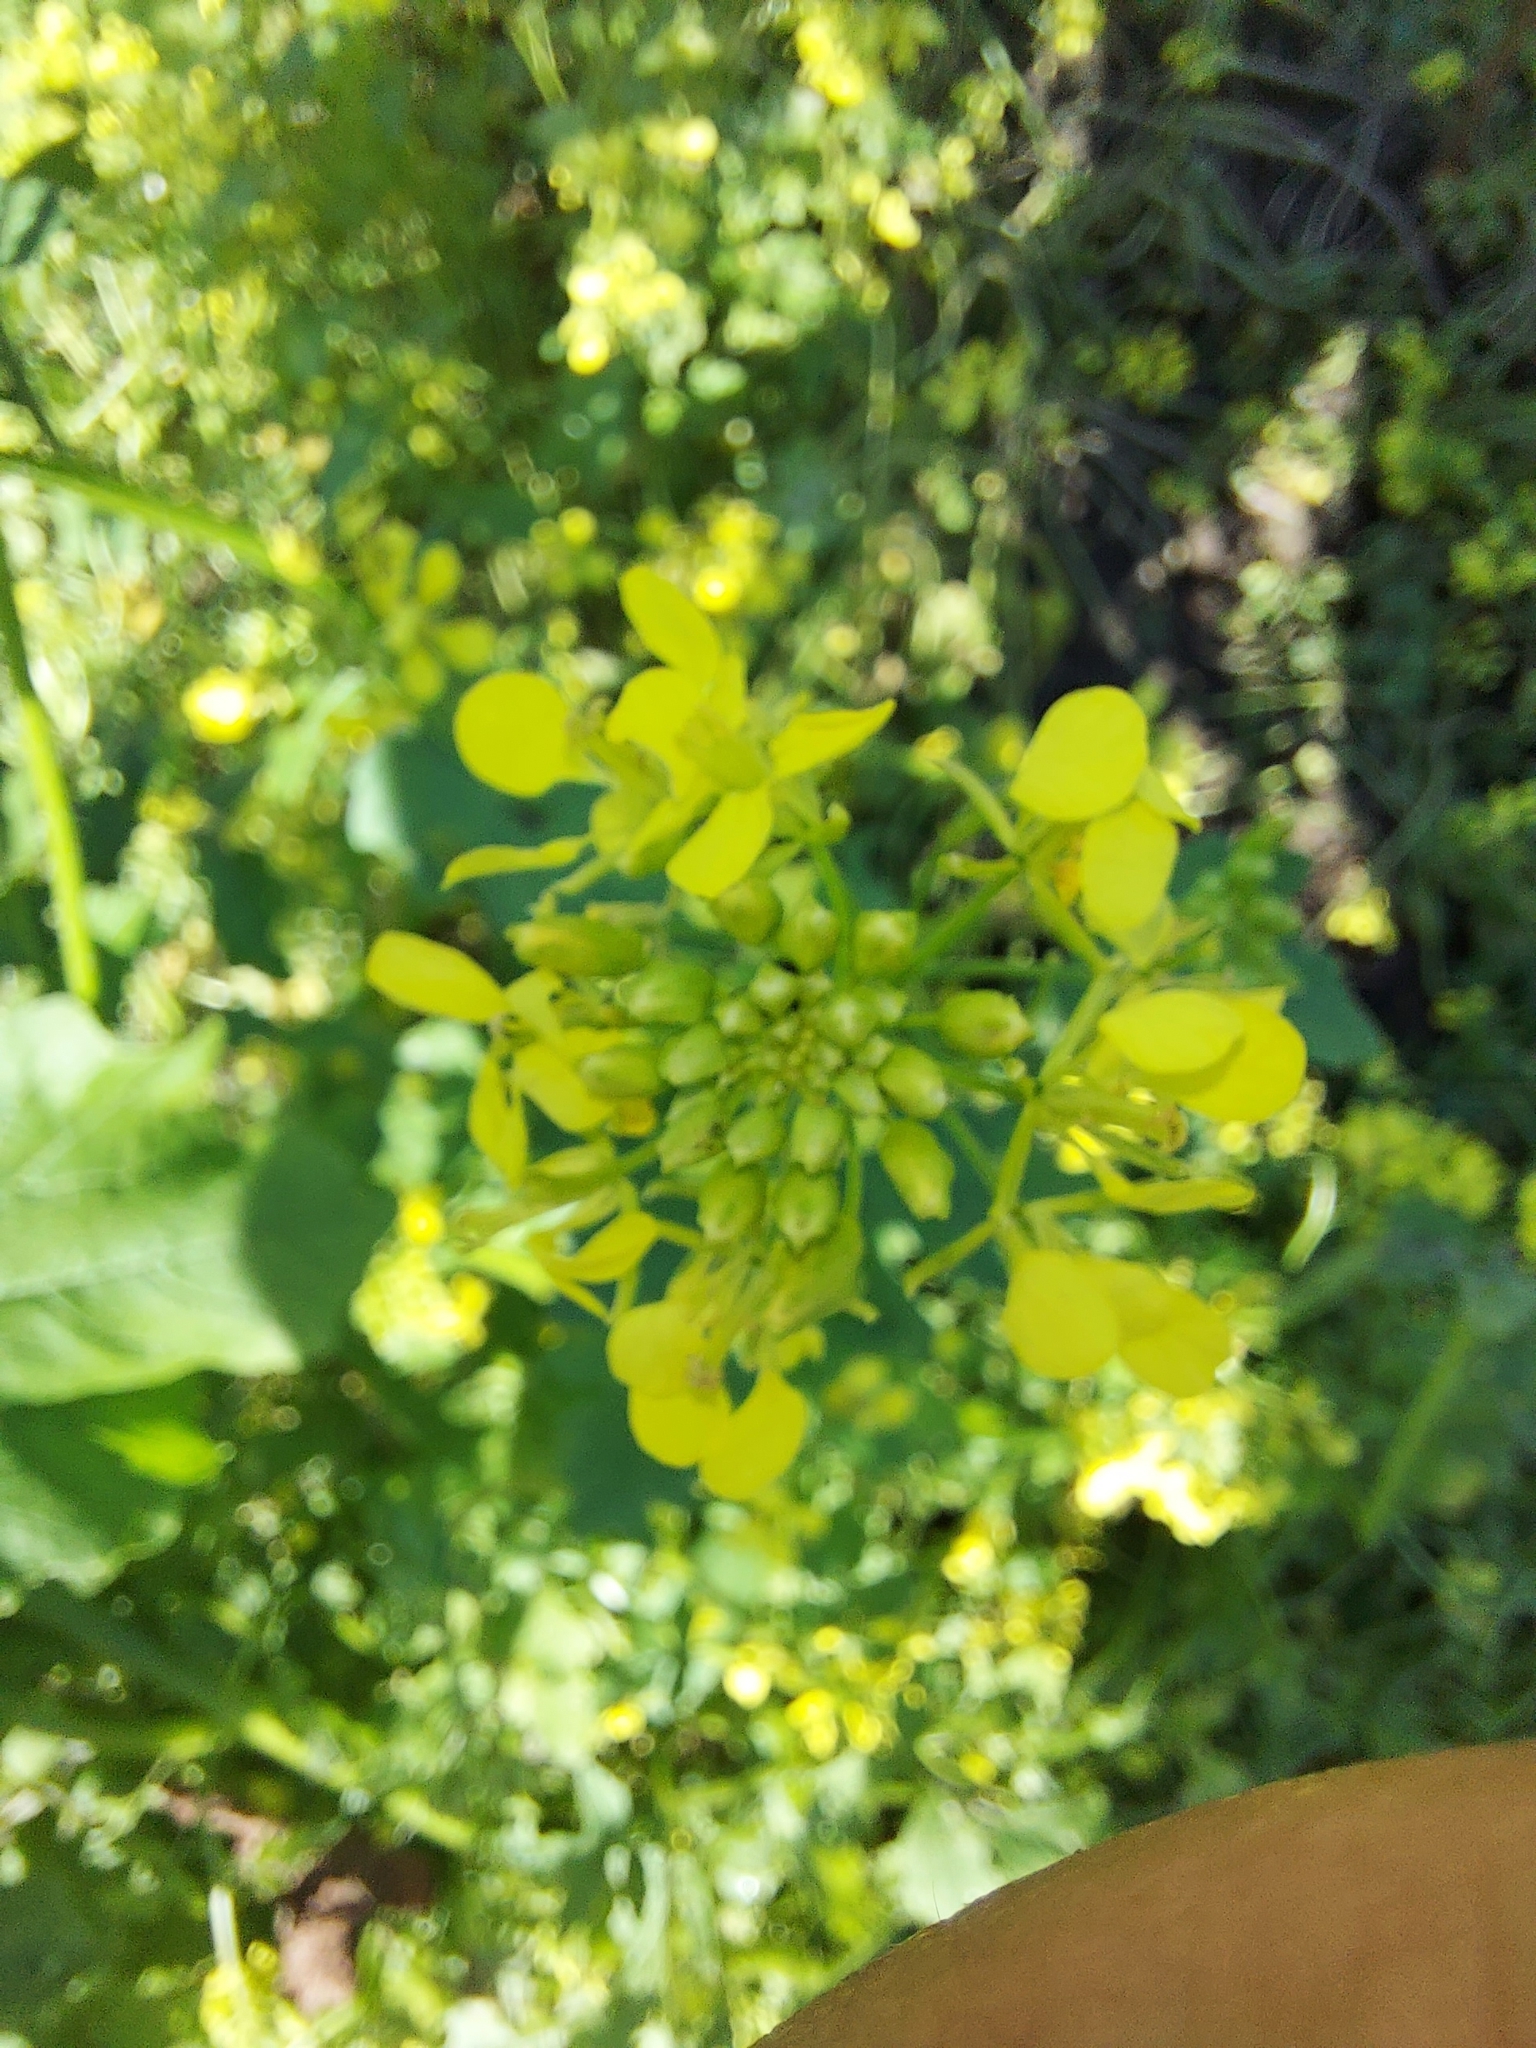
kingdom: Plantae
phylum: Tracheophyta
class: Magnoliopsida
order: Brassicales
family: Brassicaceae
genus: Sisymbrium
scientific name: Sisymbrium loeselii
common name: False london-rocket
